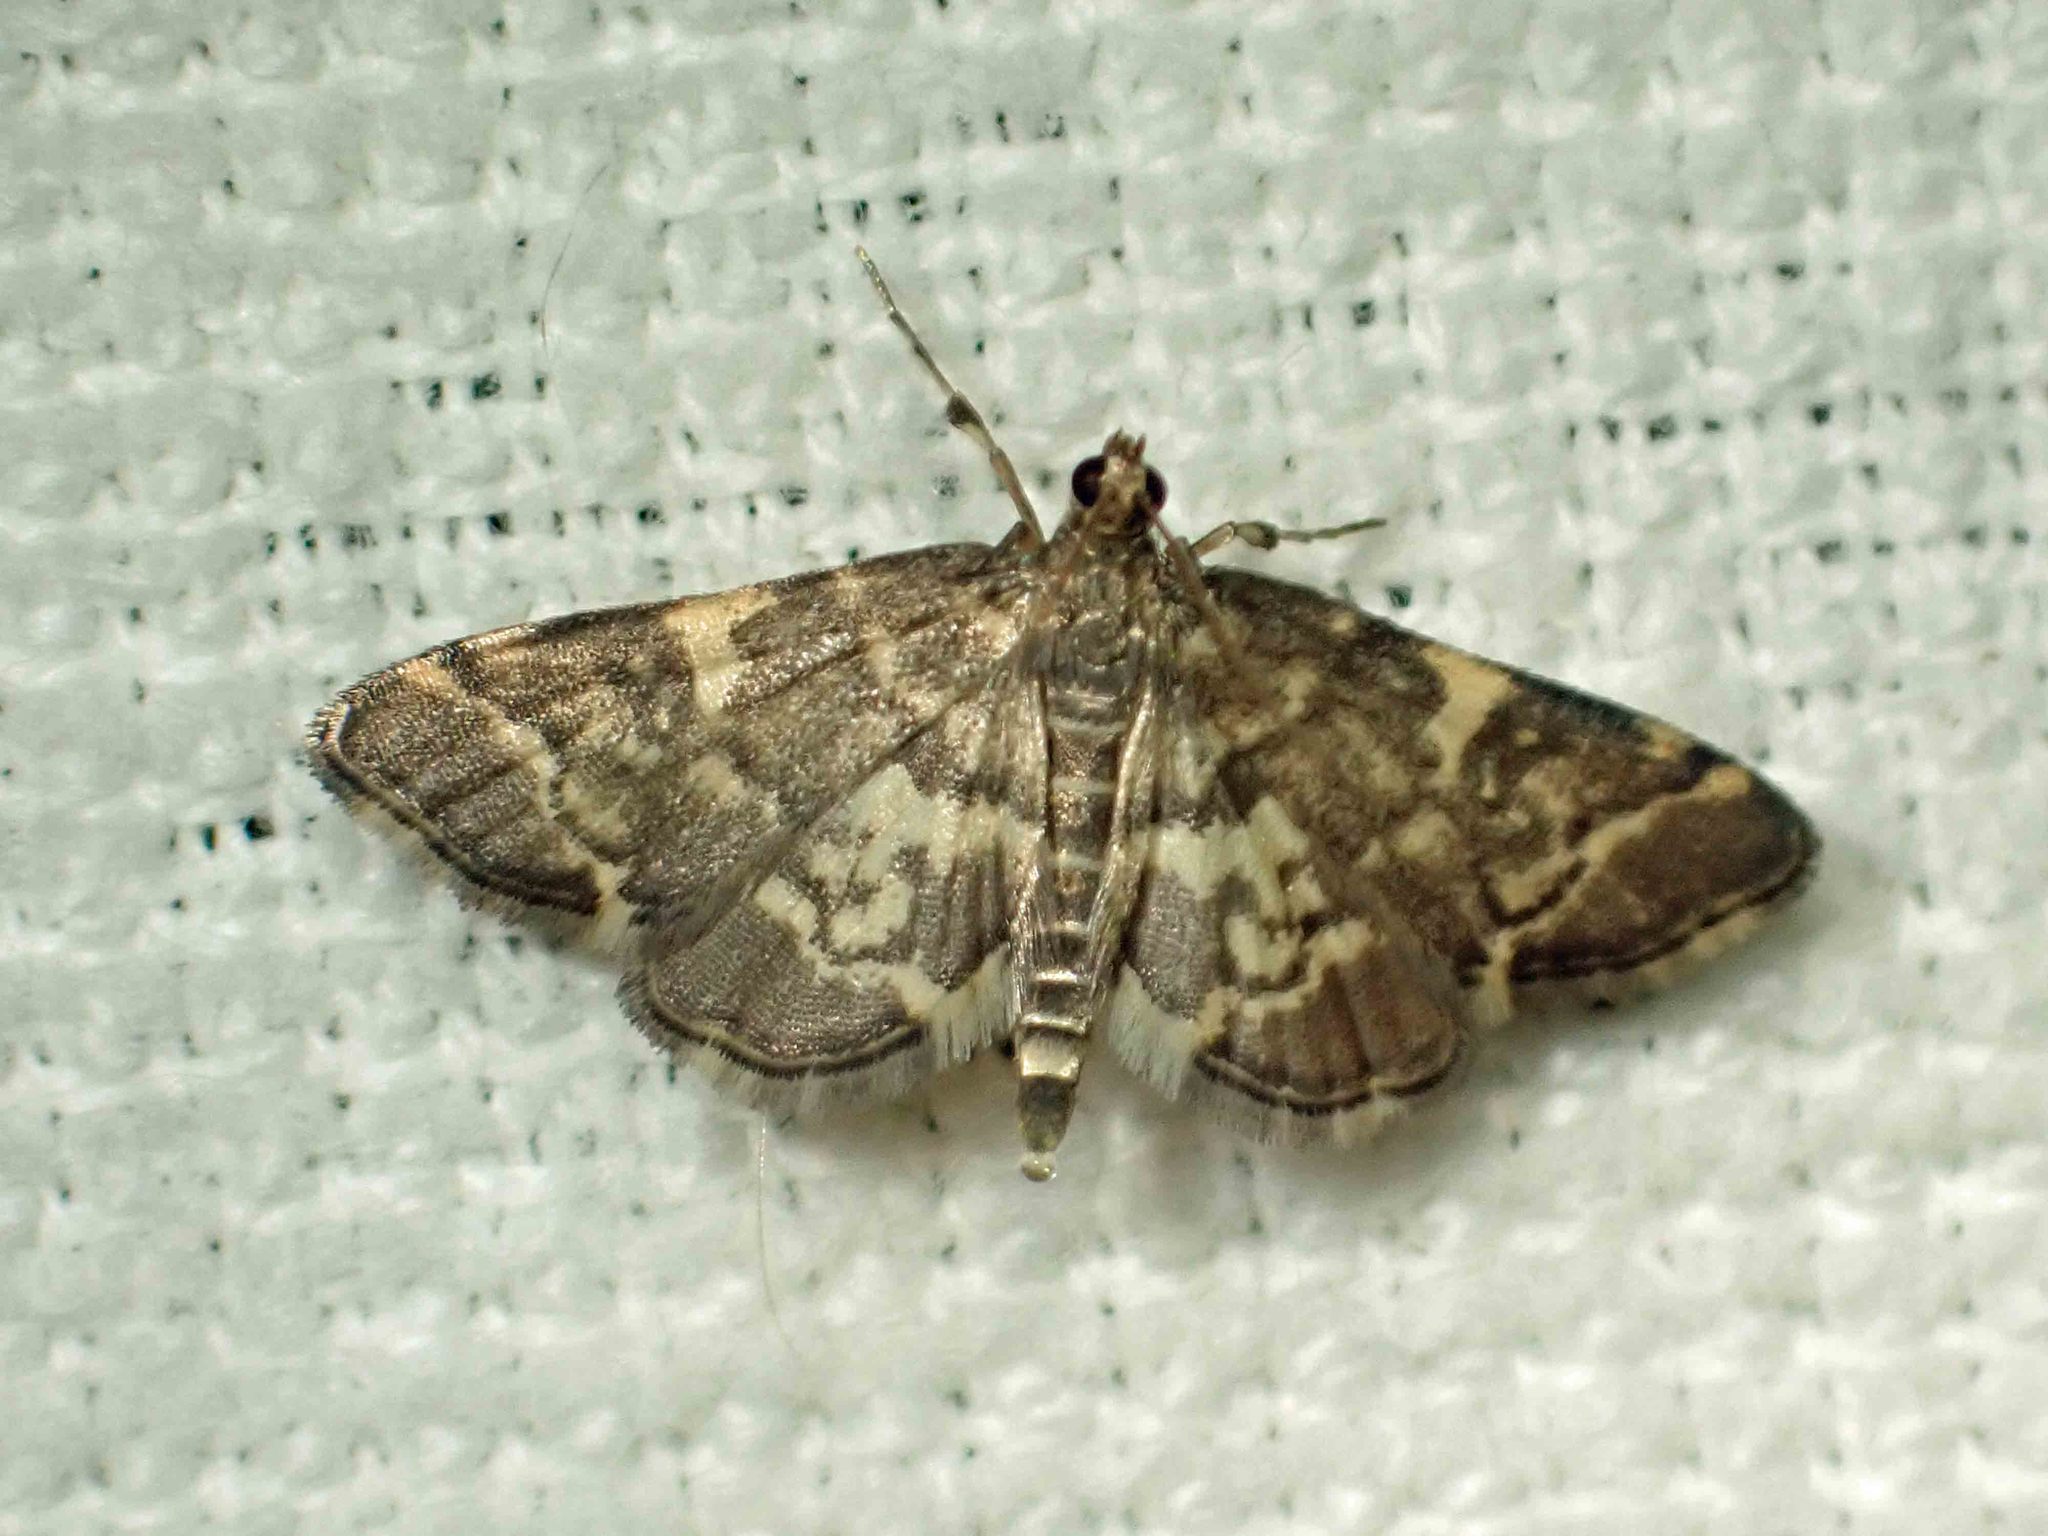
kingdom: Animalia
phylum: Arthropoda
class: Insecta
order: Lepidoptera
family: Crambidae
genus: Anageshna
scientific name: Anageshna primordialis
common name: Yellow-spotted webworm moth
